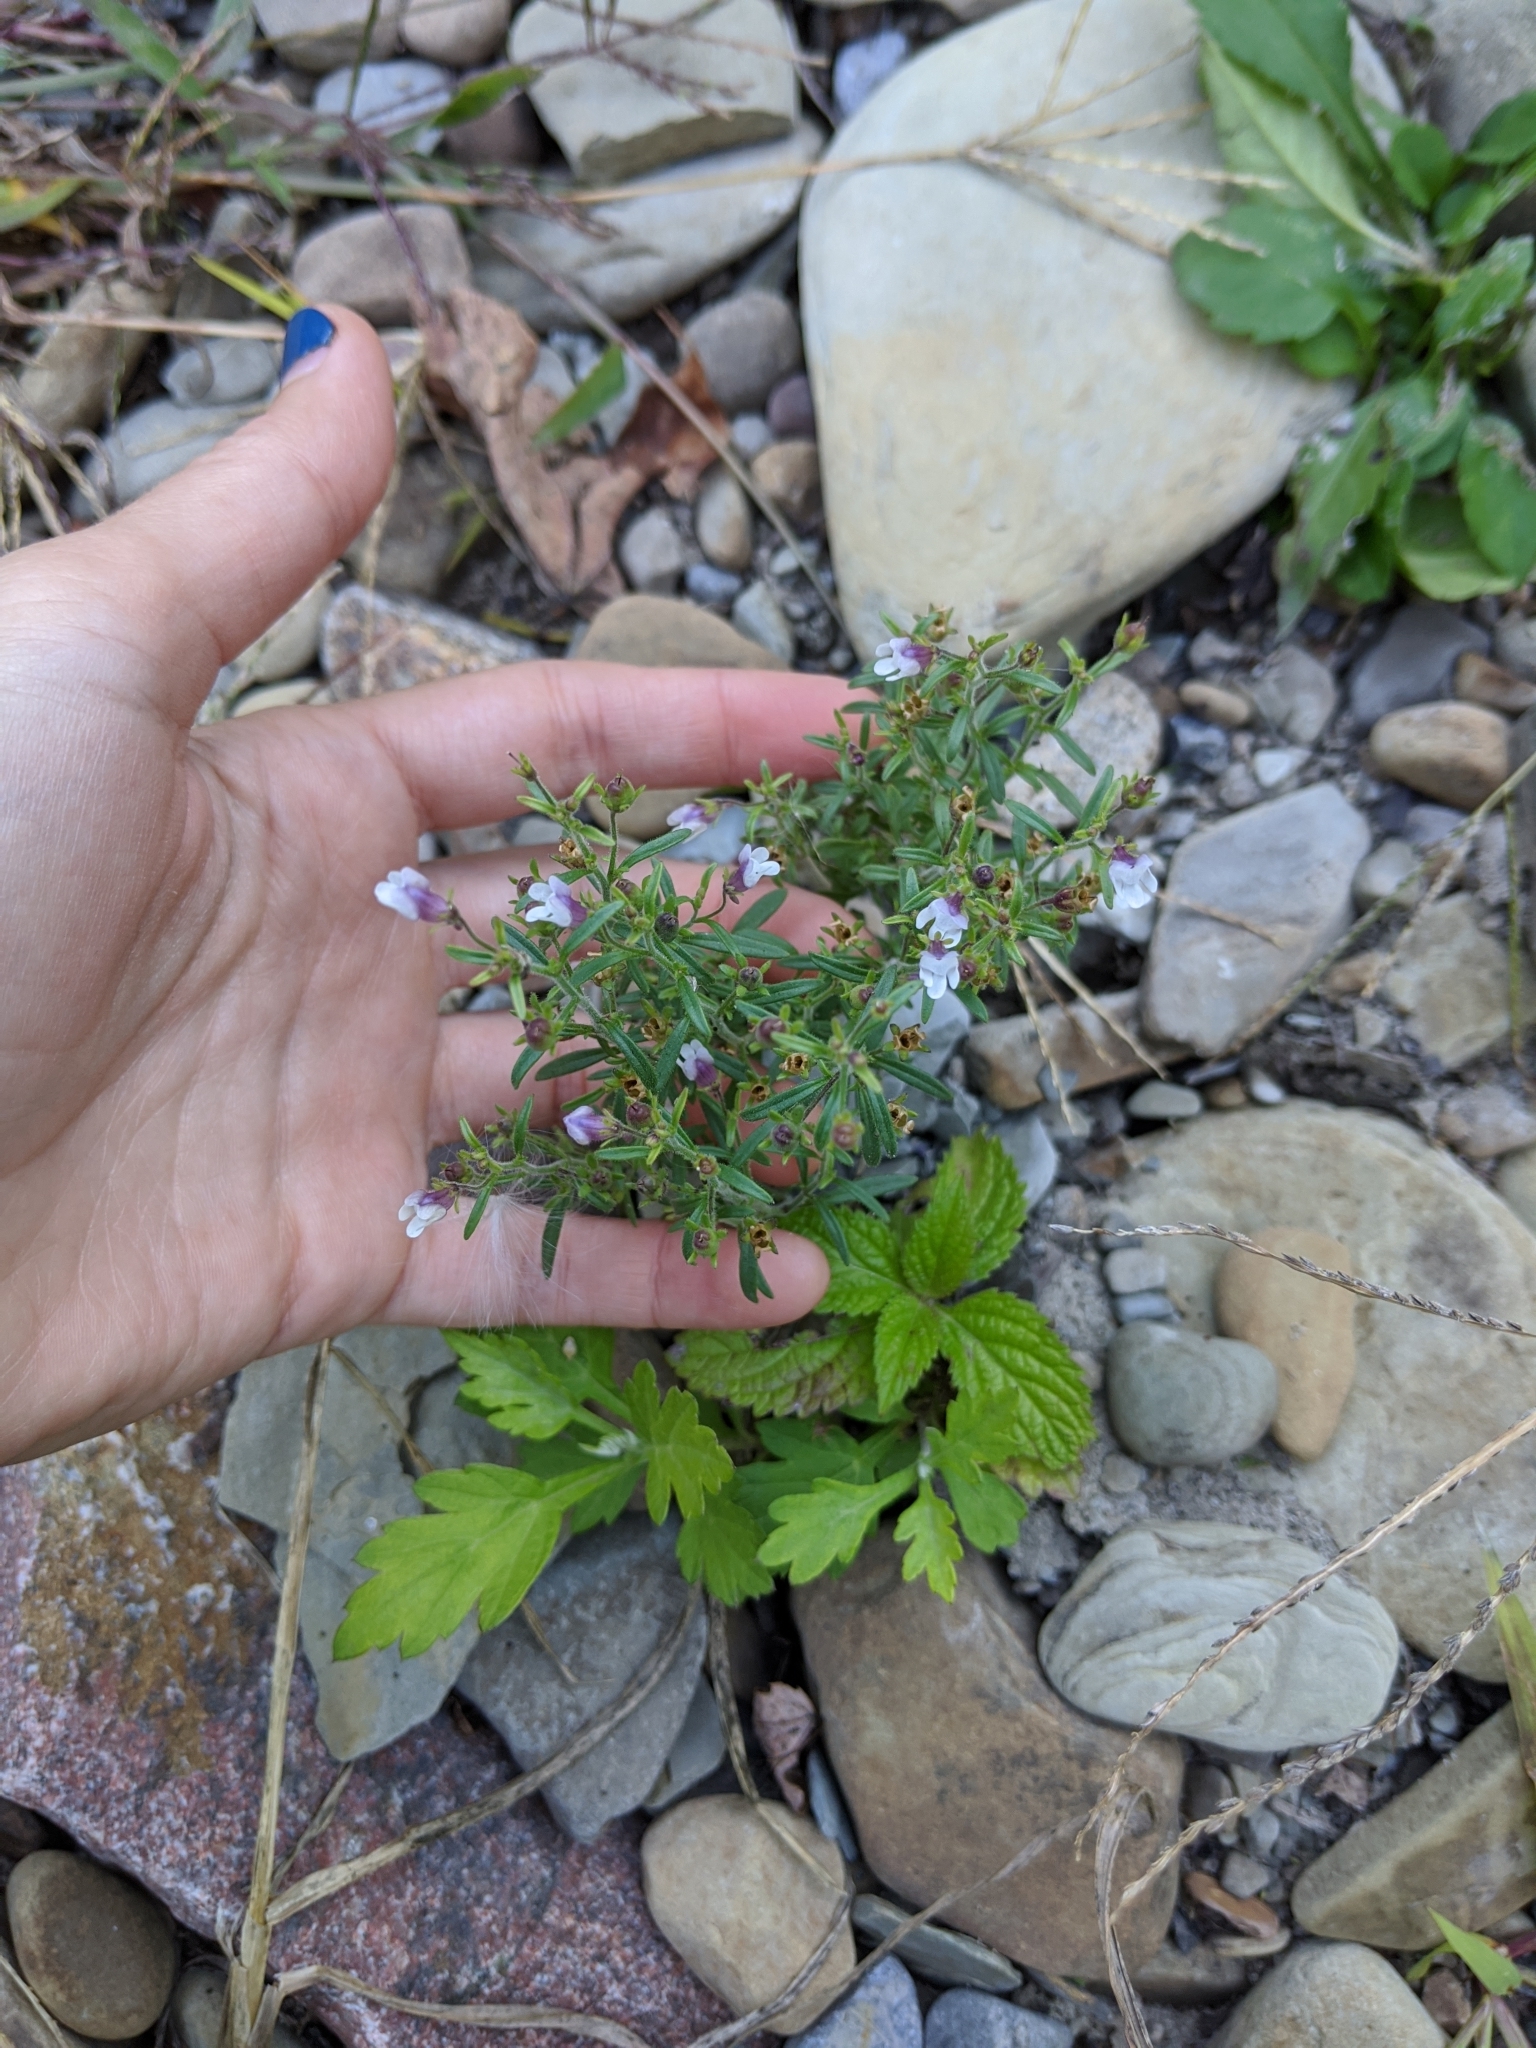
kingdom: Plantae
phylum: Tracheophyta
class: Magnoliopsida
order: Lamiales
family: Plantaginaceae
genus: Chaenorhinum
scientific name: Chaenorhinum minus
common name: Dwarf snapdragon
